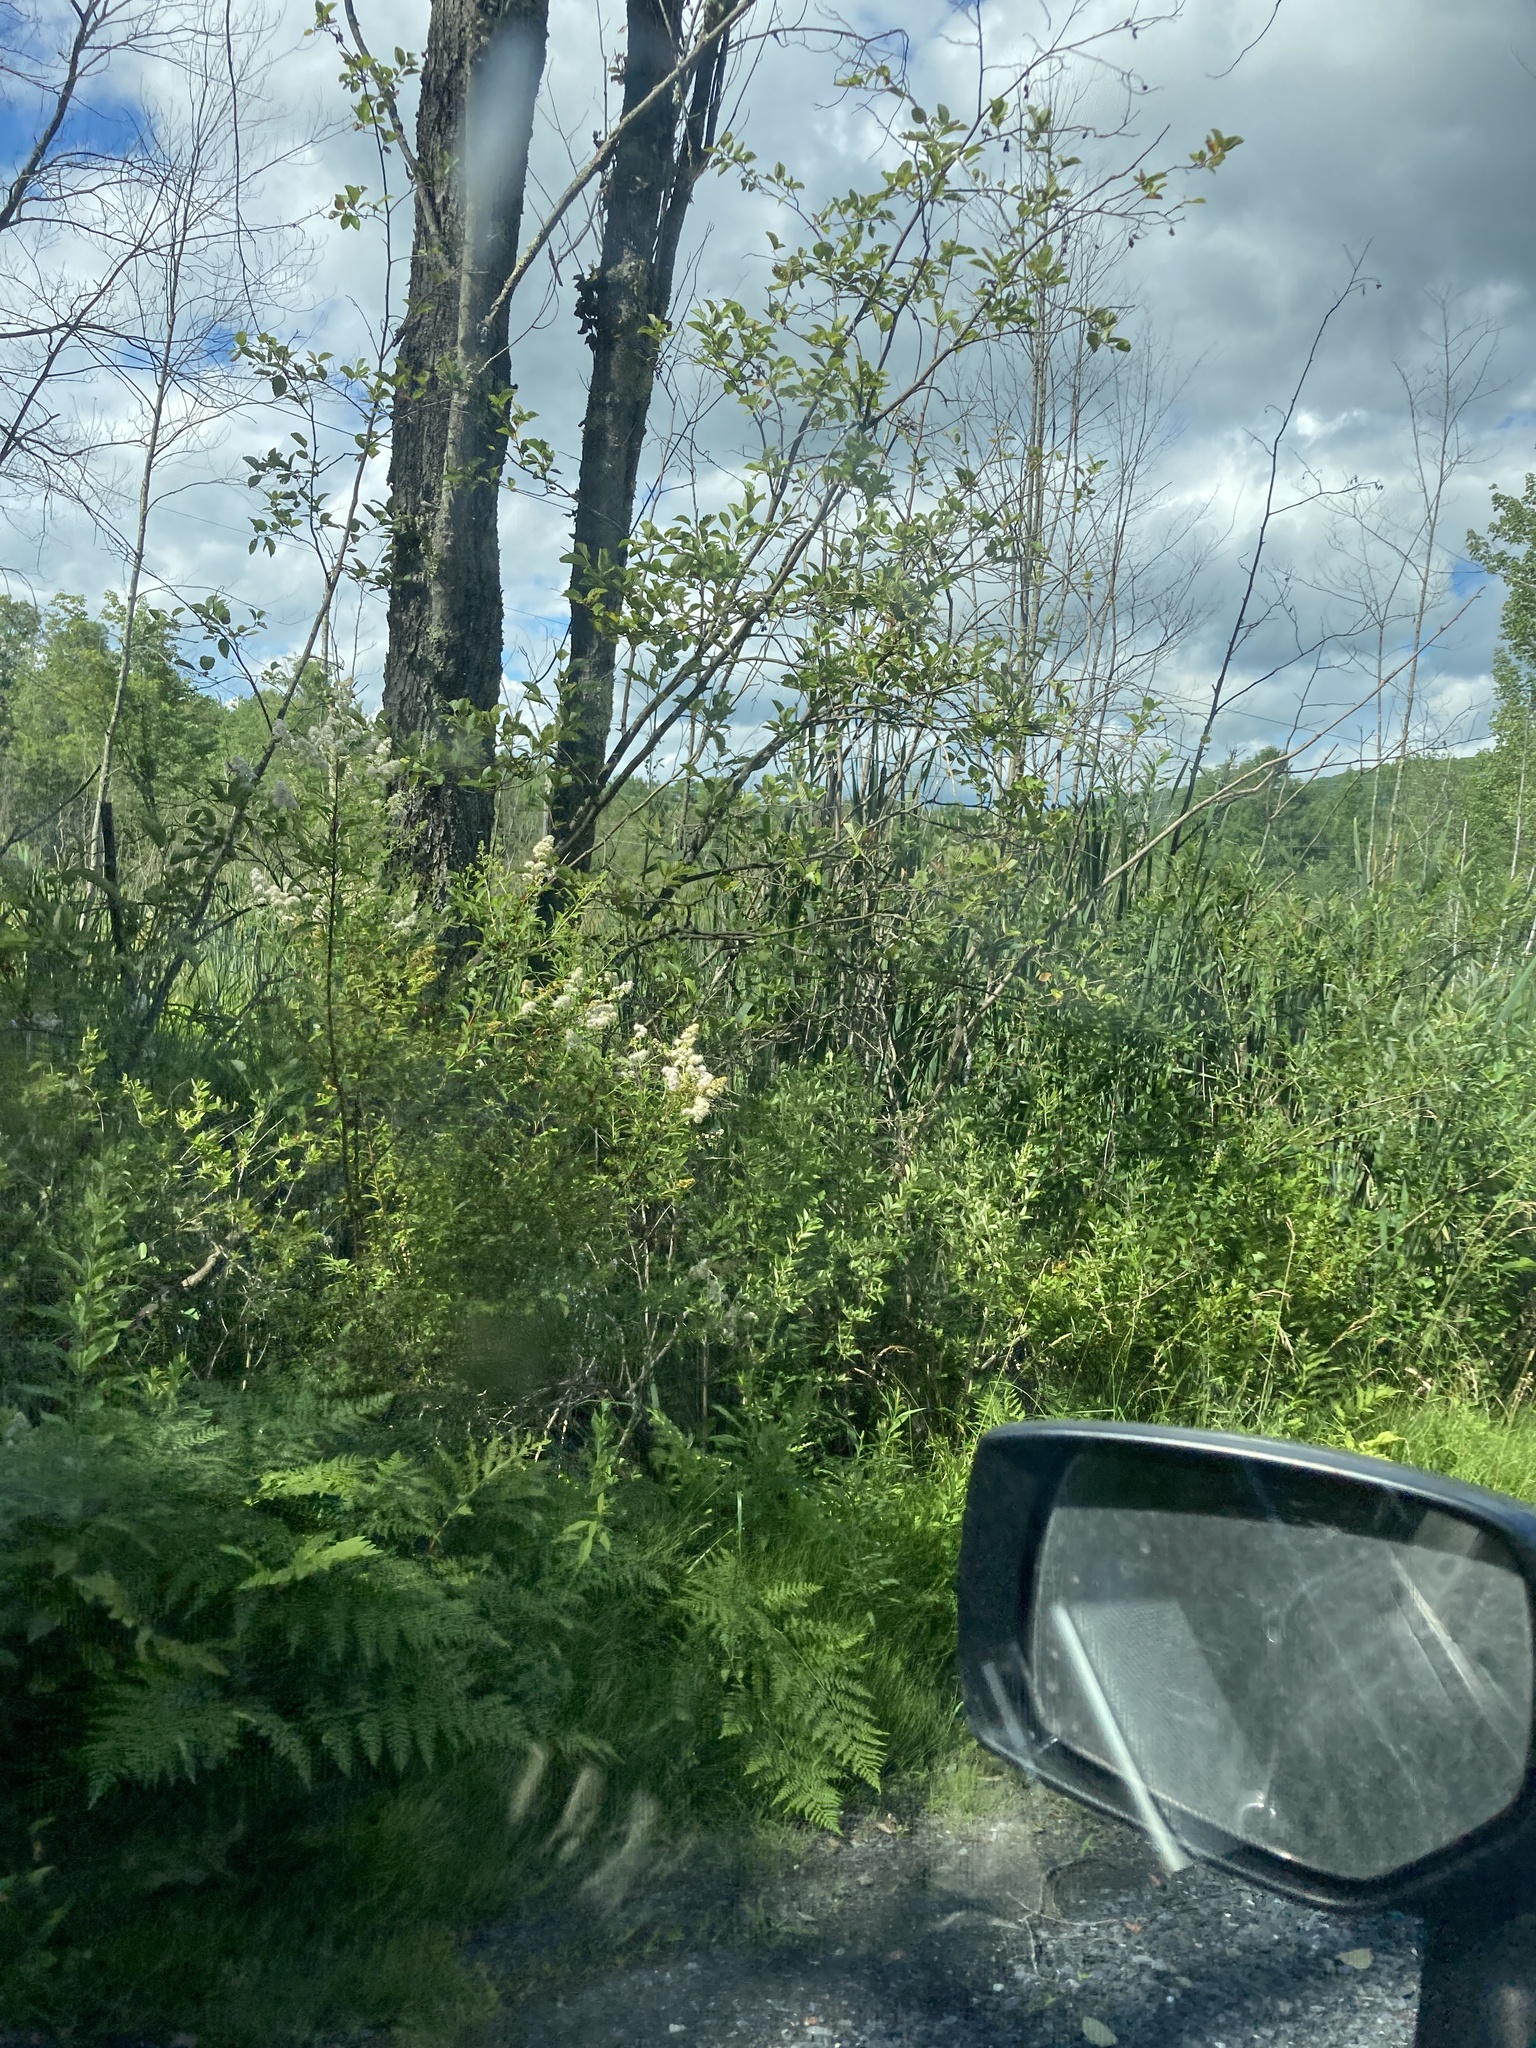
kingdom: Plantae
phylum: Tracheophyta
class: Magnoliopsida
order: Rosales
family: Rosaceae
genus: Spiraea
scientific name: Spiraea alba
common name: Pale bridewort
